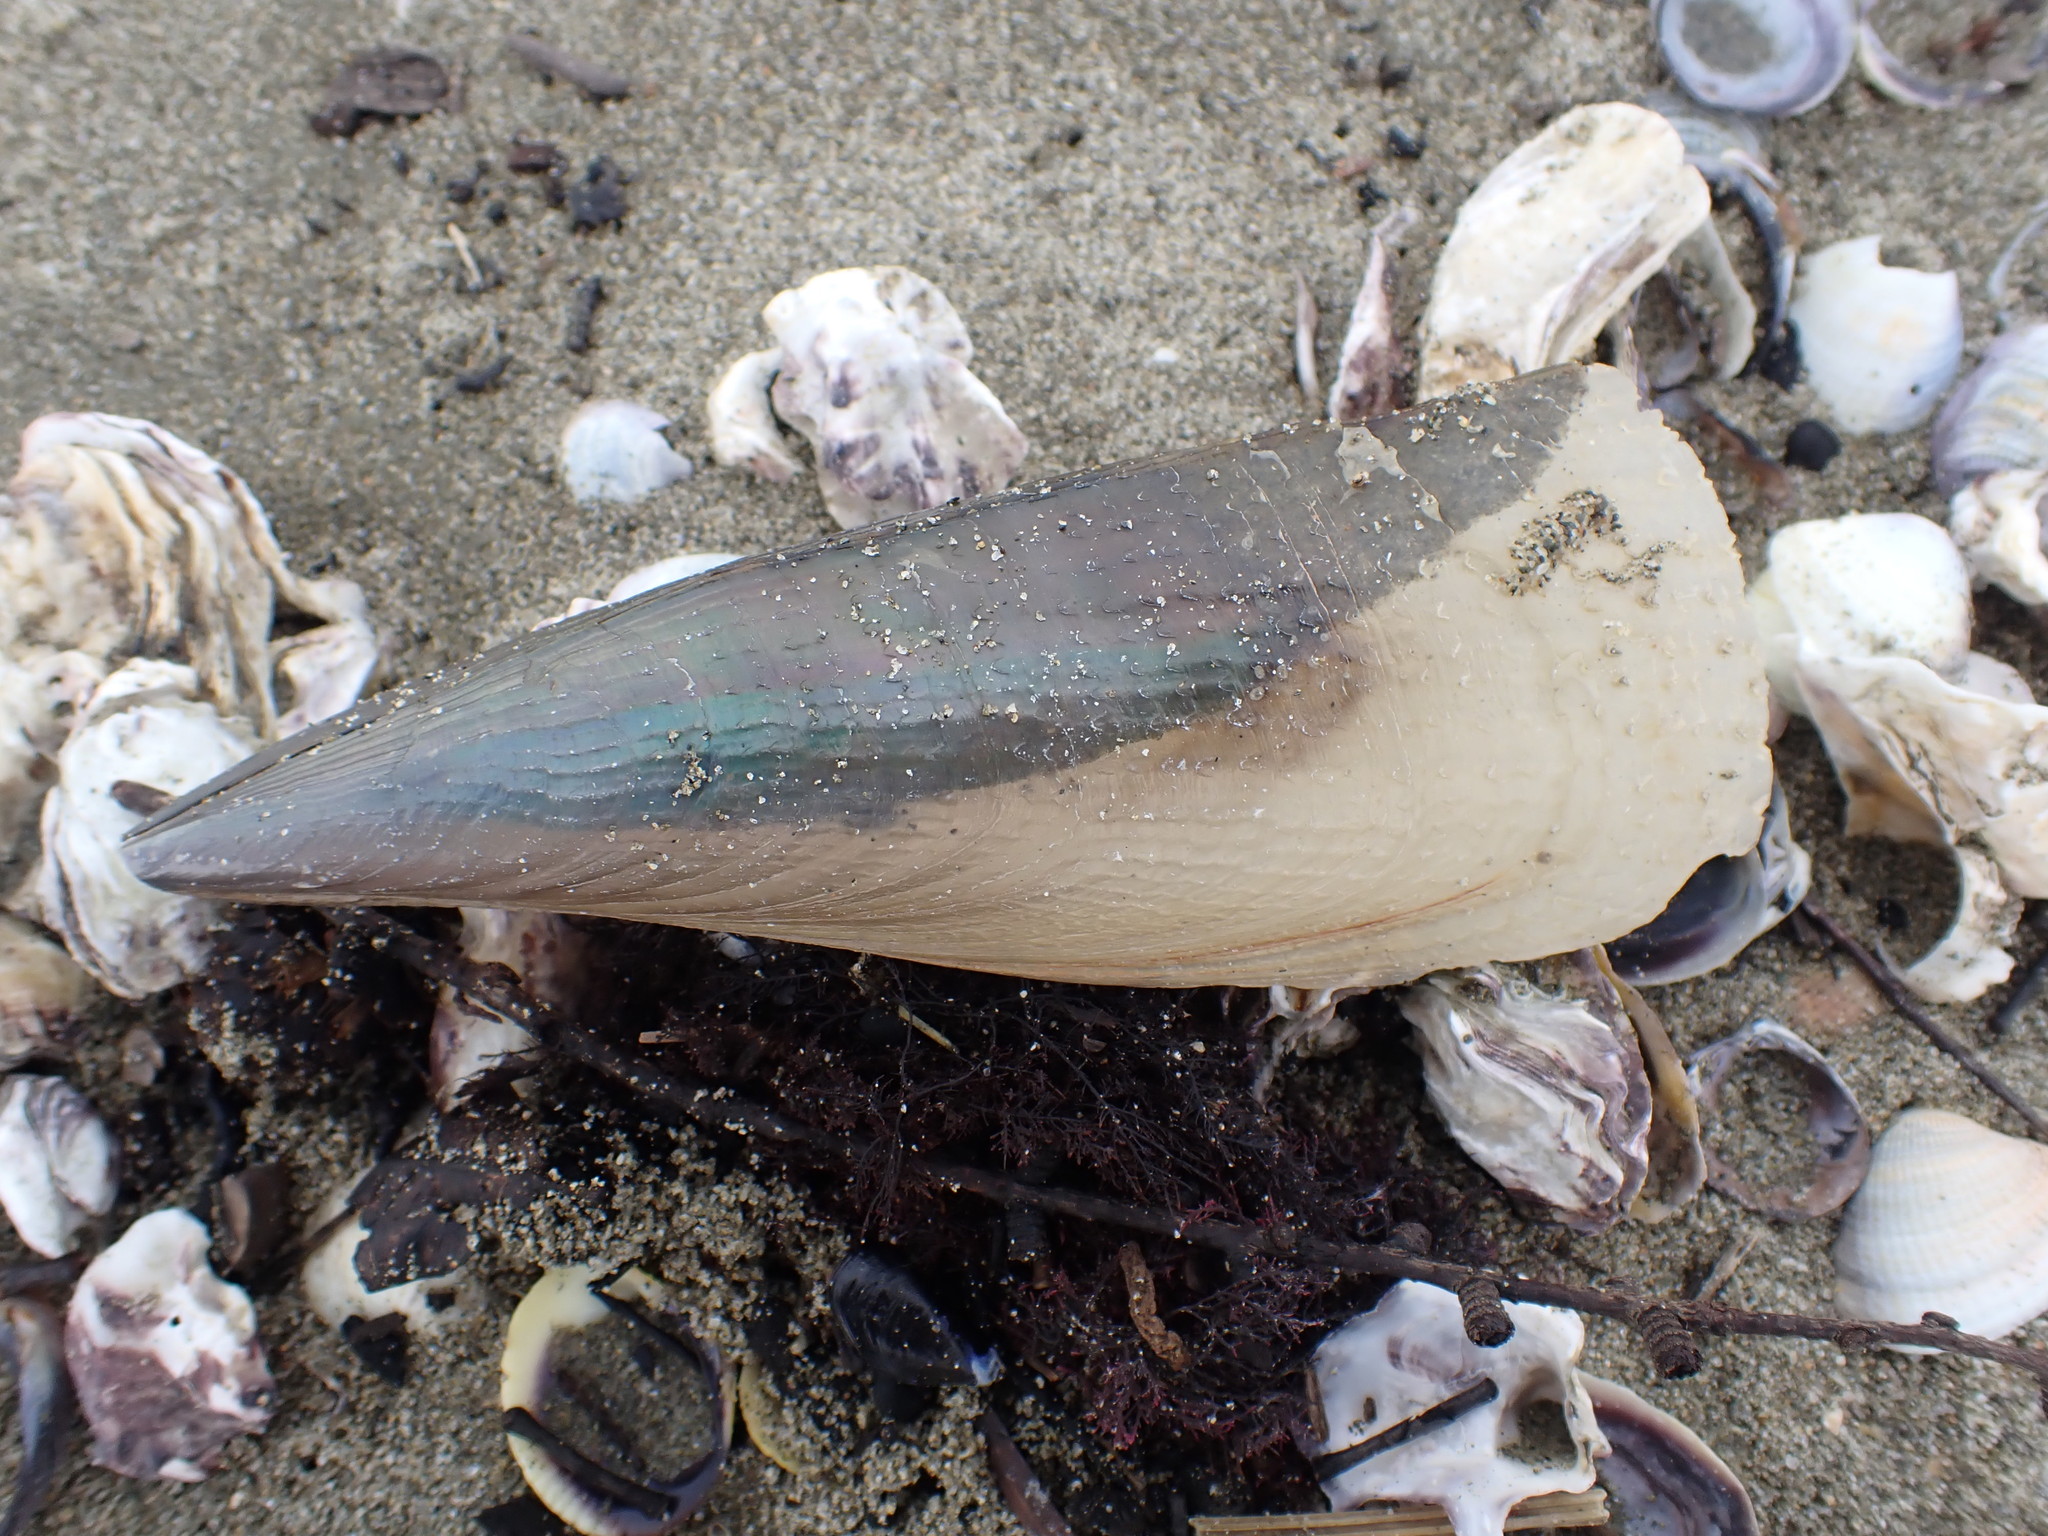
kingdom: Animalia
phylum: Mollusca
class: Bivalvia
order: Ostreida
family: Pinnidae
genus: Atrina
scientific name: Atrina zelandica
